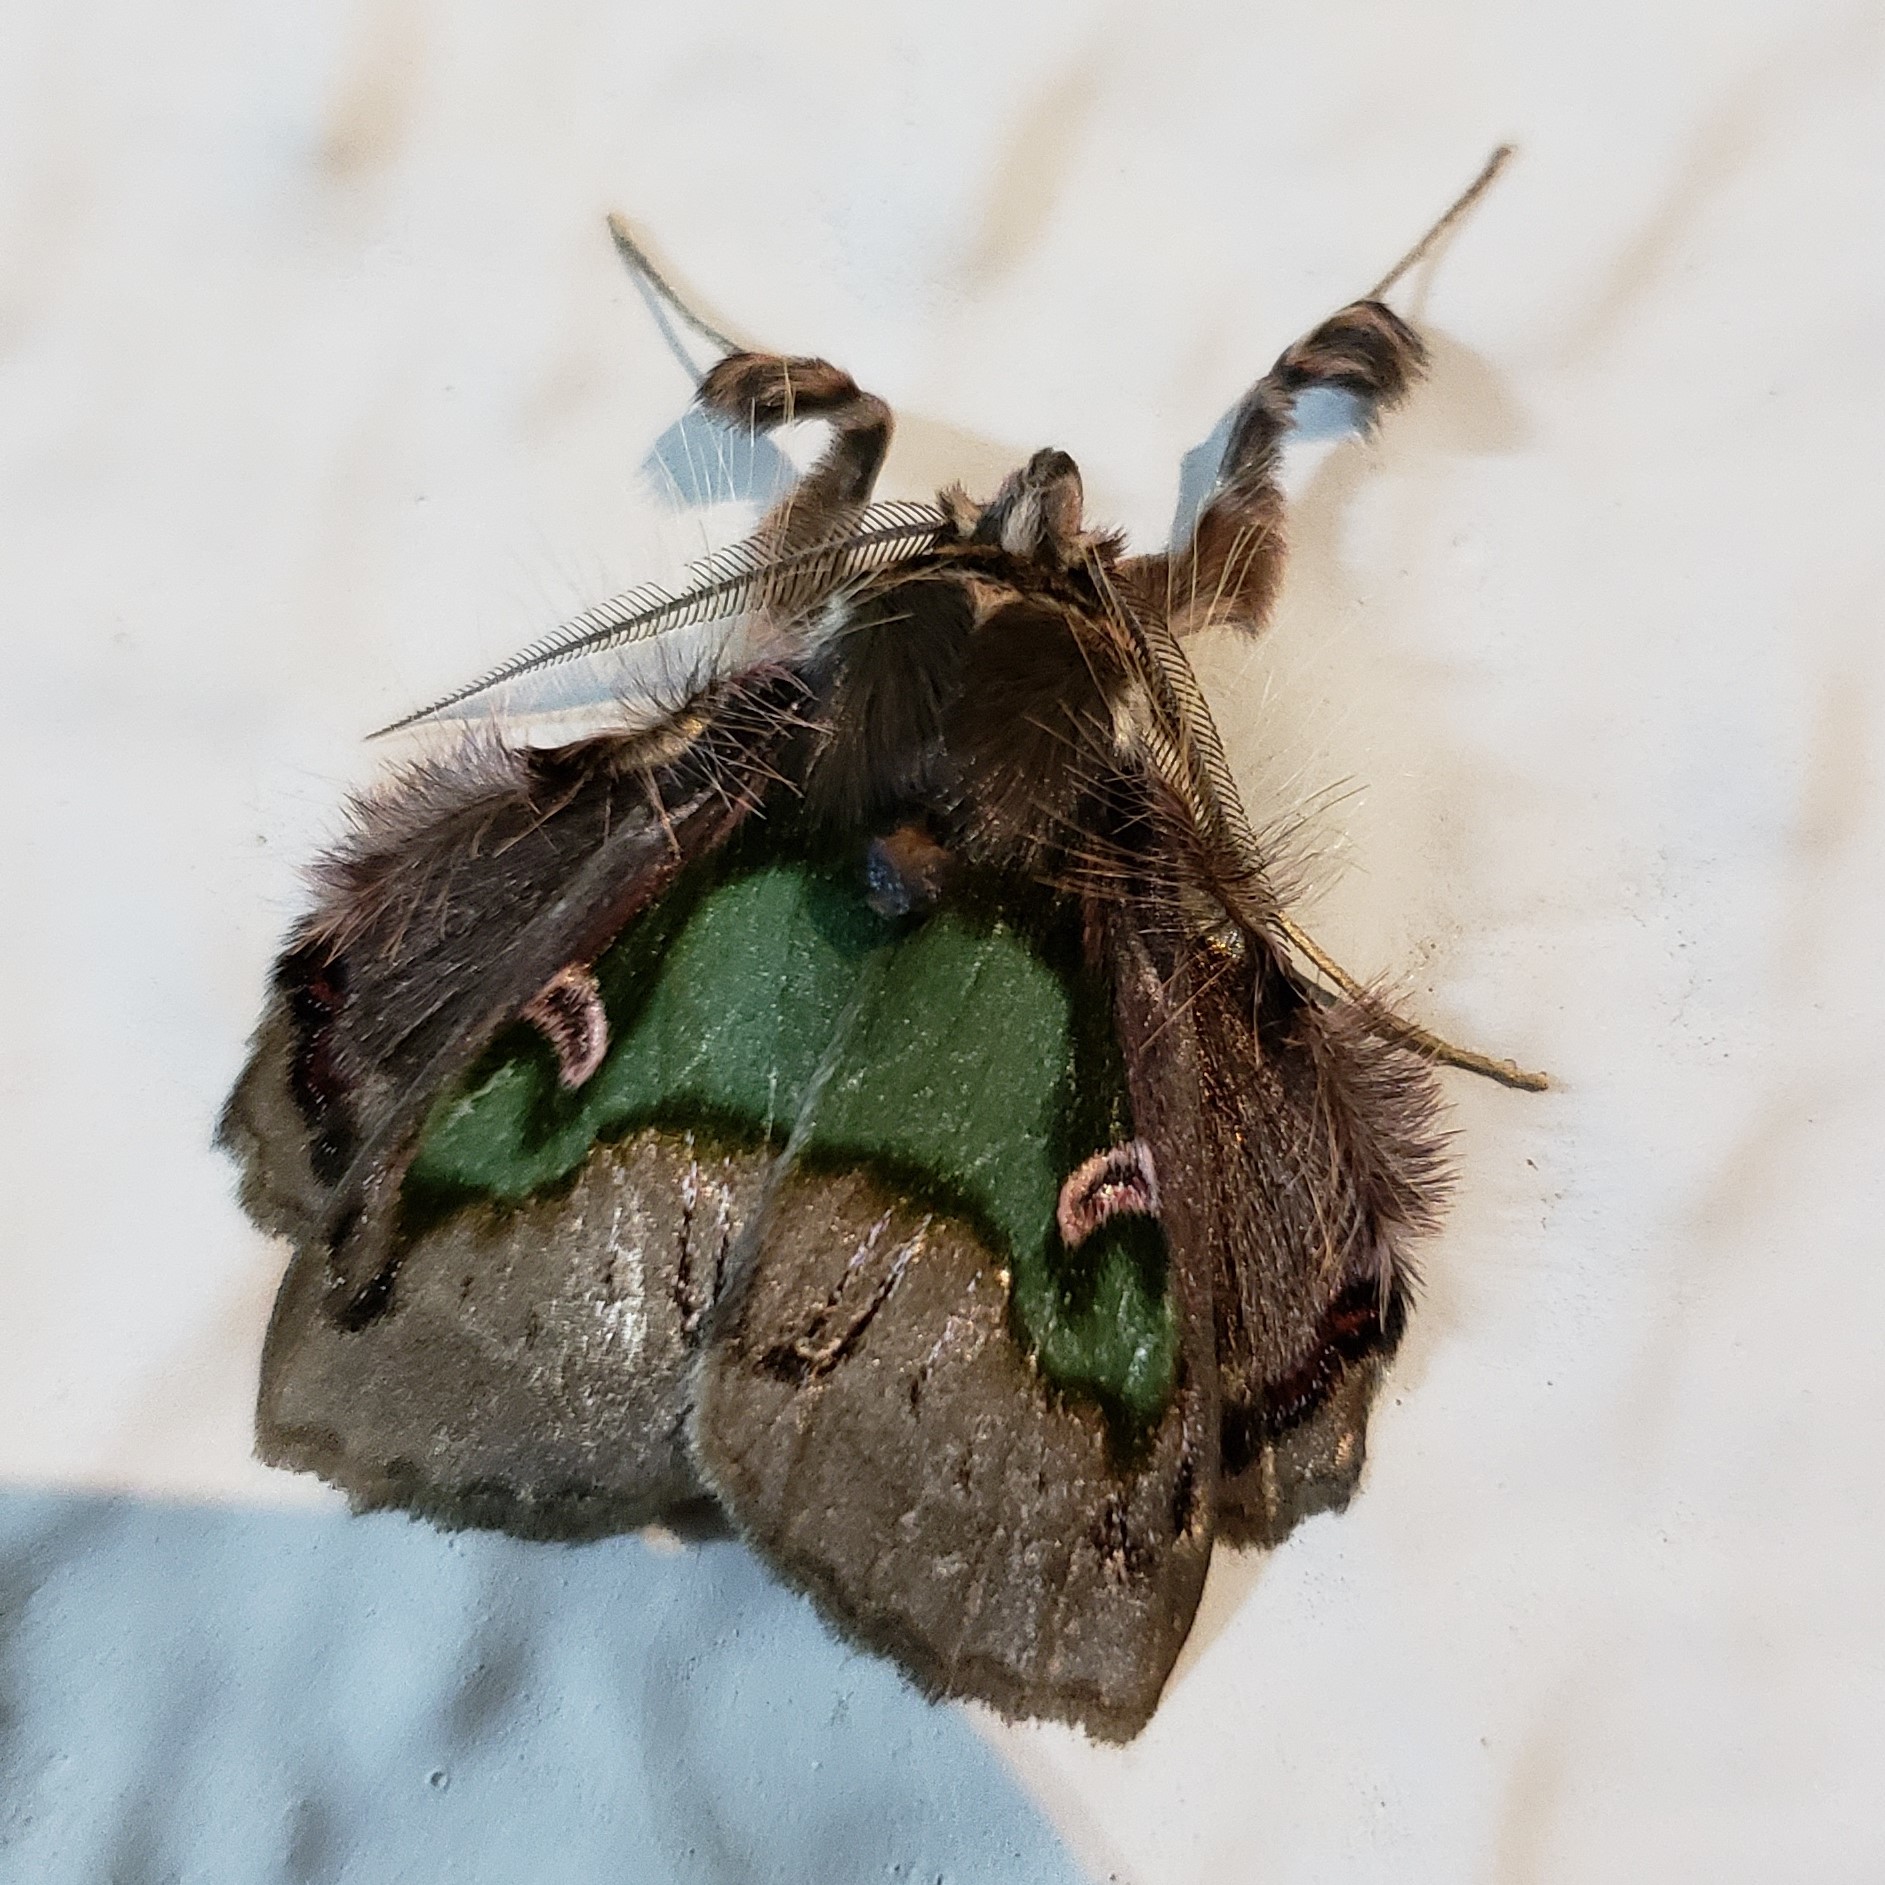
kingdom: Animalia
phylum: Arthropoda
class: Insecta
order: Lepidoptera
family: Erebidae
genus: Ceroctena
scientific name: Ceroctena amynta
